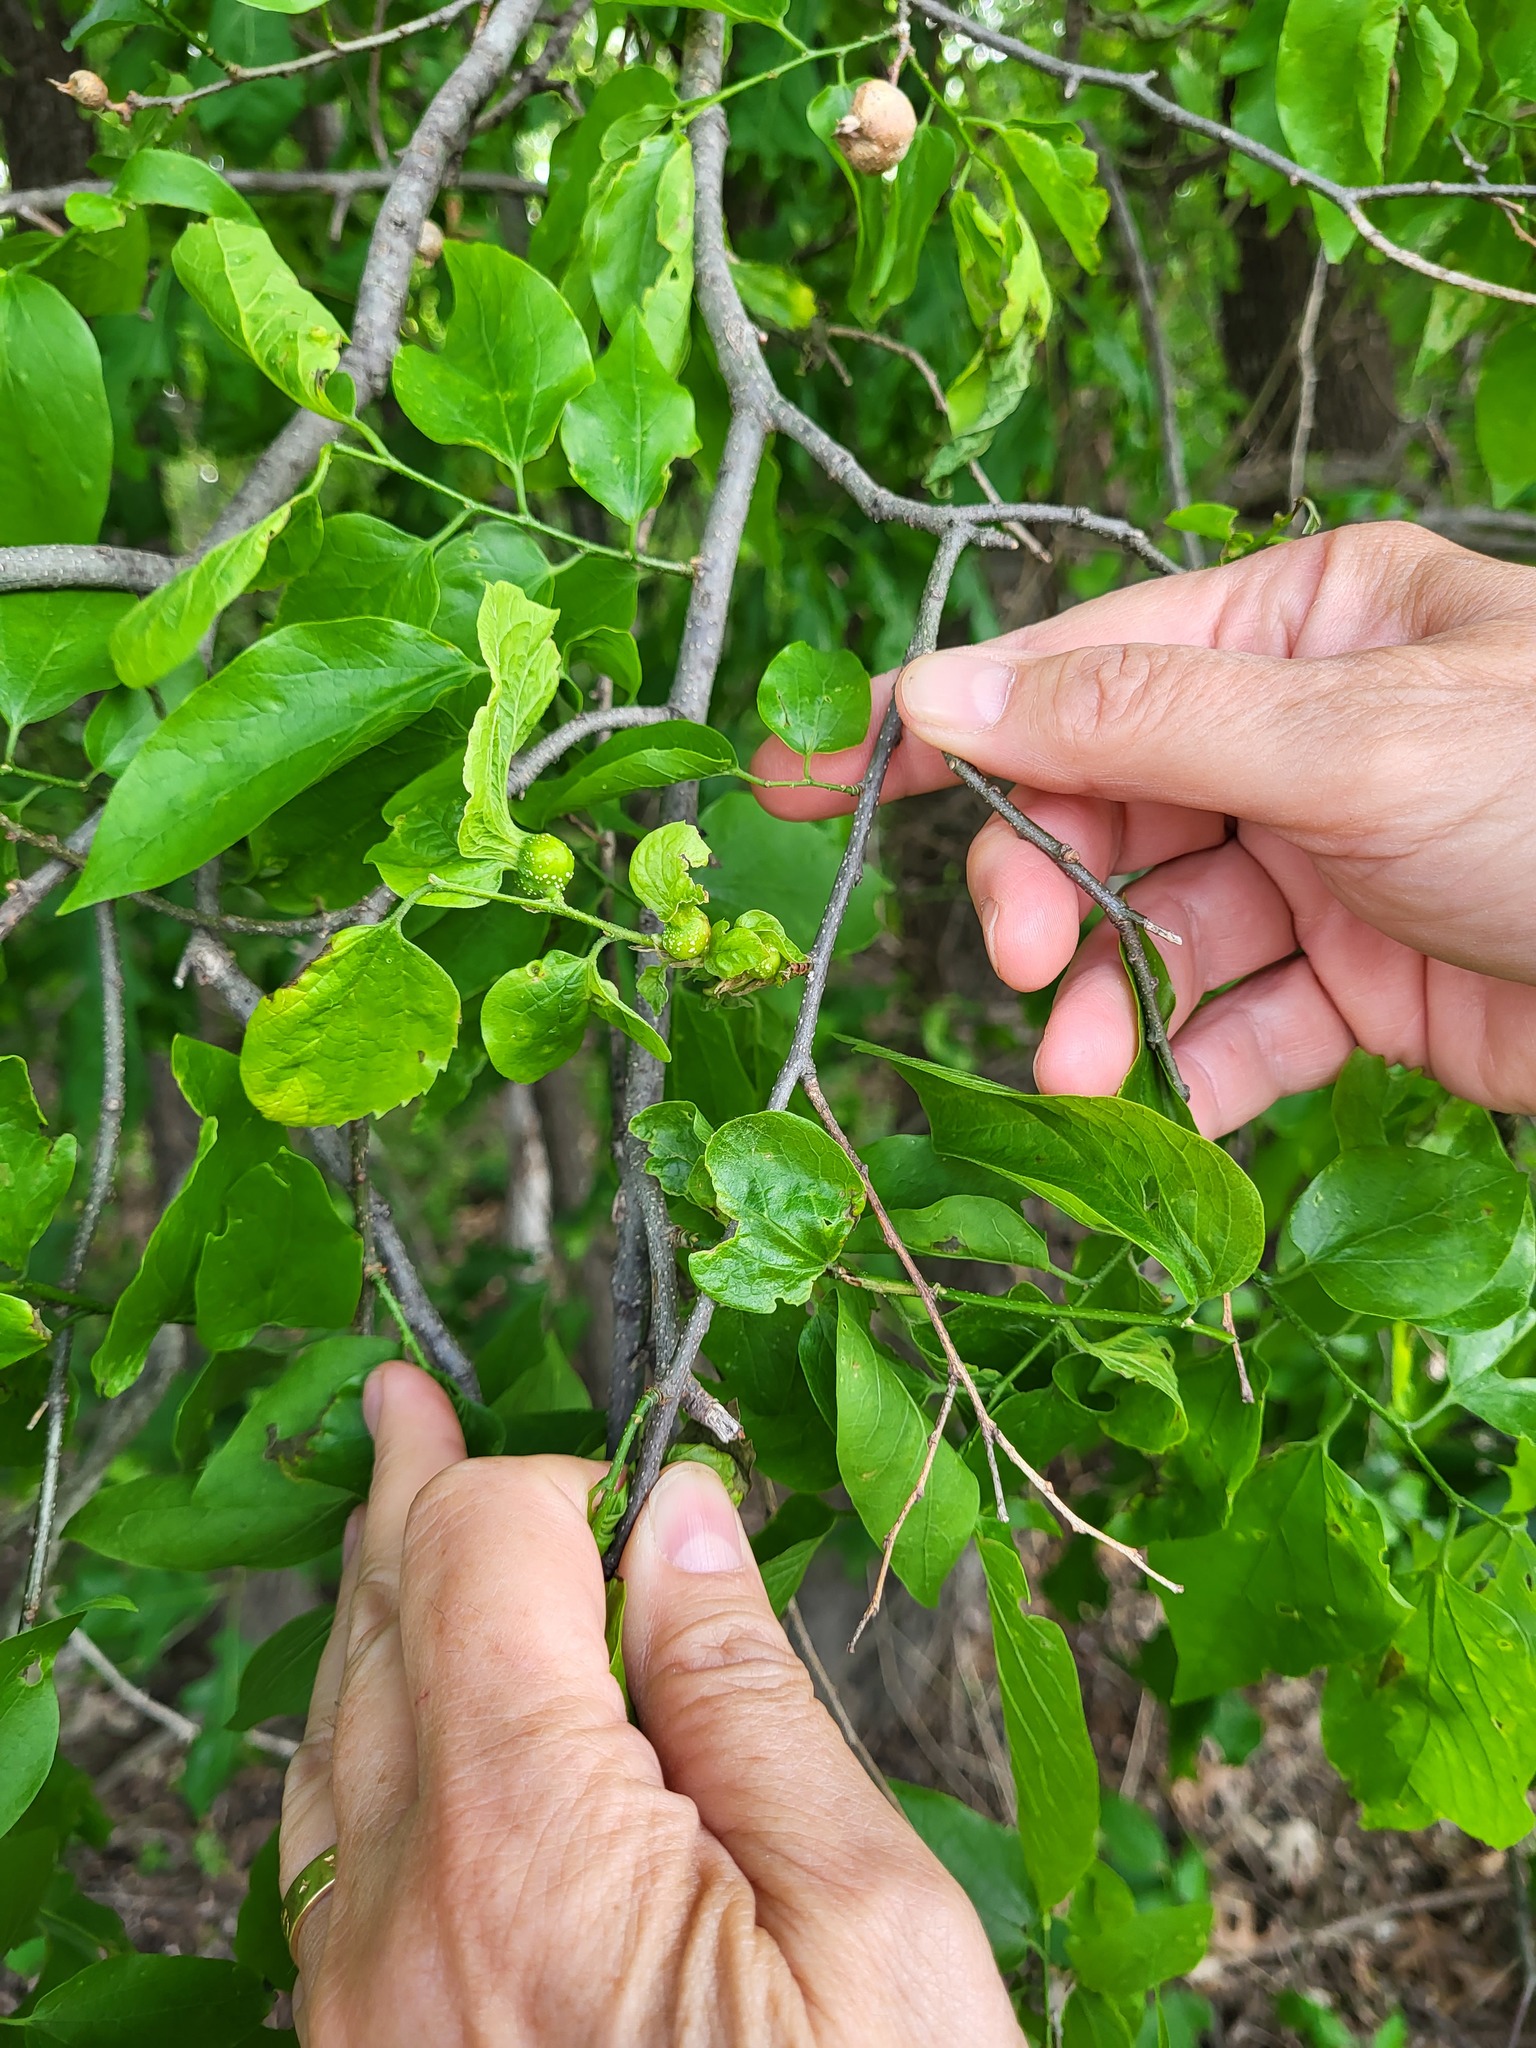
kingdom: Plantae
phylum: Tracheophyta
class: Magnoliopsida
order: Rosales
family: Cannabaceae
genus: Celtis
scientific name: Celtis laevigata
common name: Sugarberry
